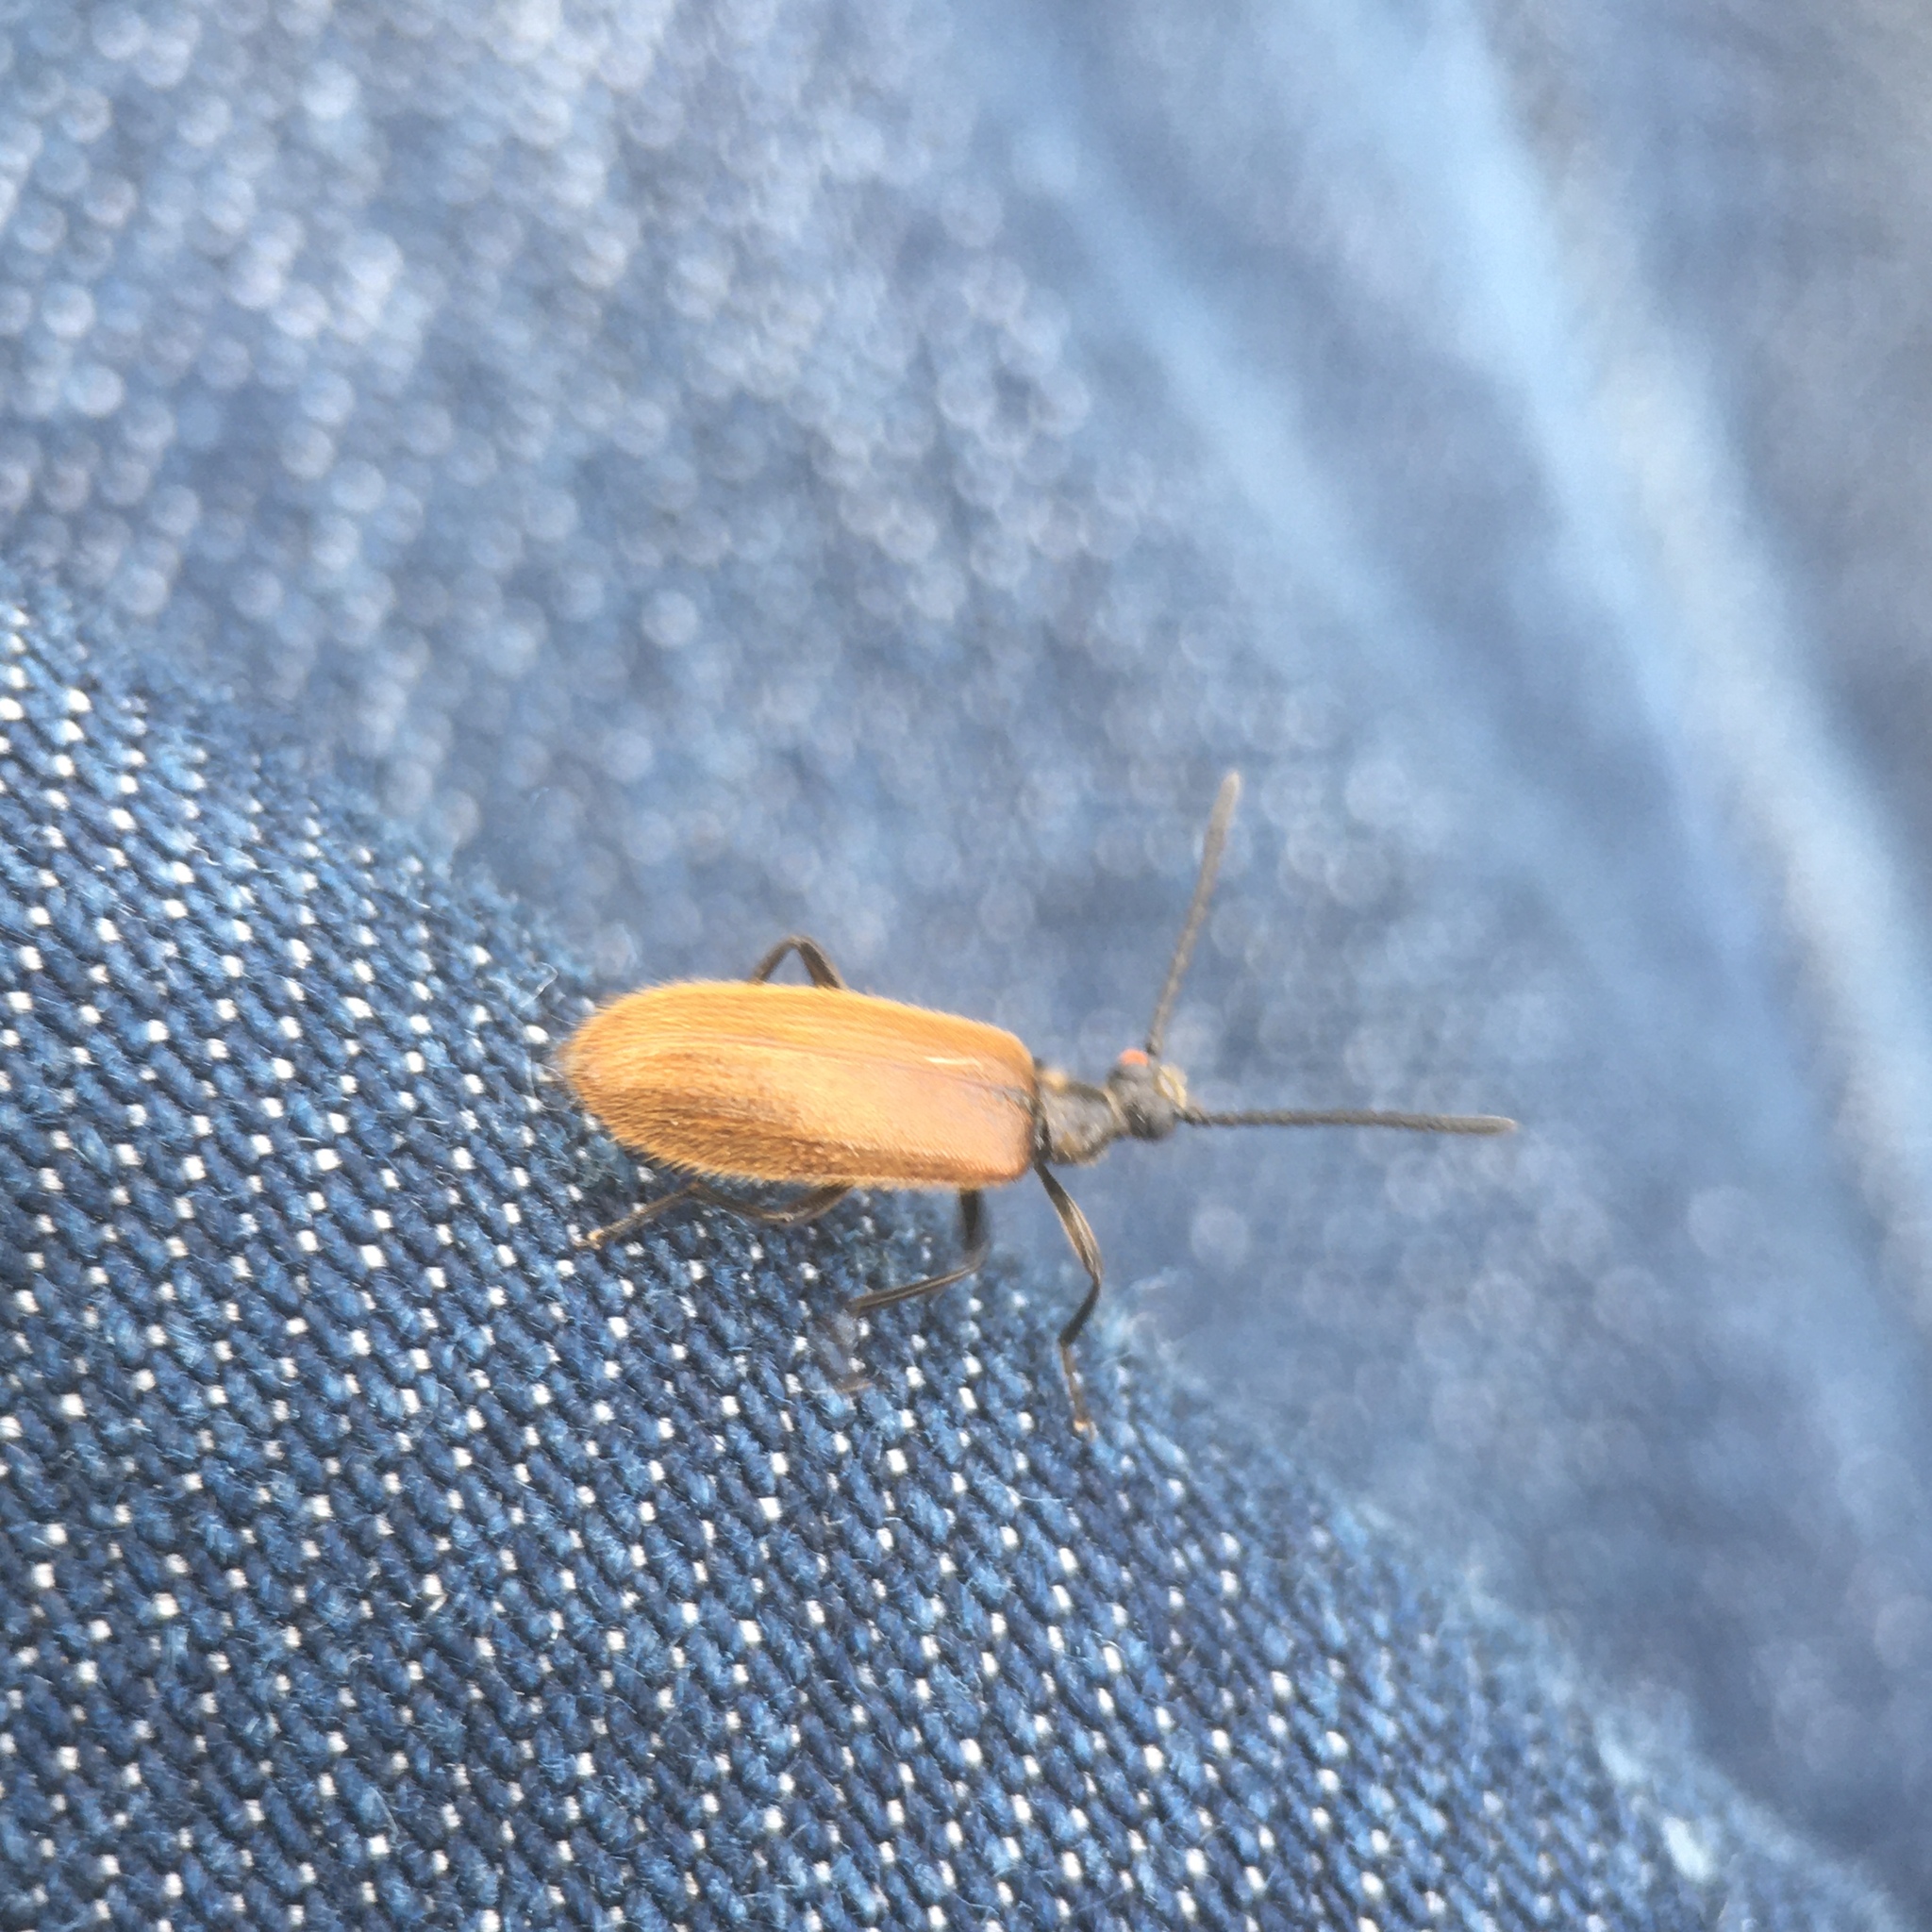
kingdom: Animalia
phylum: Arthropoda
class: Insecta
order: Coleoptera
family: Tenebrionidae
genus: Lagria
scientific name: Lagria hirta
